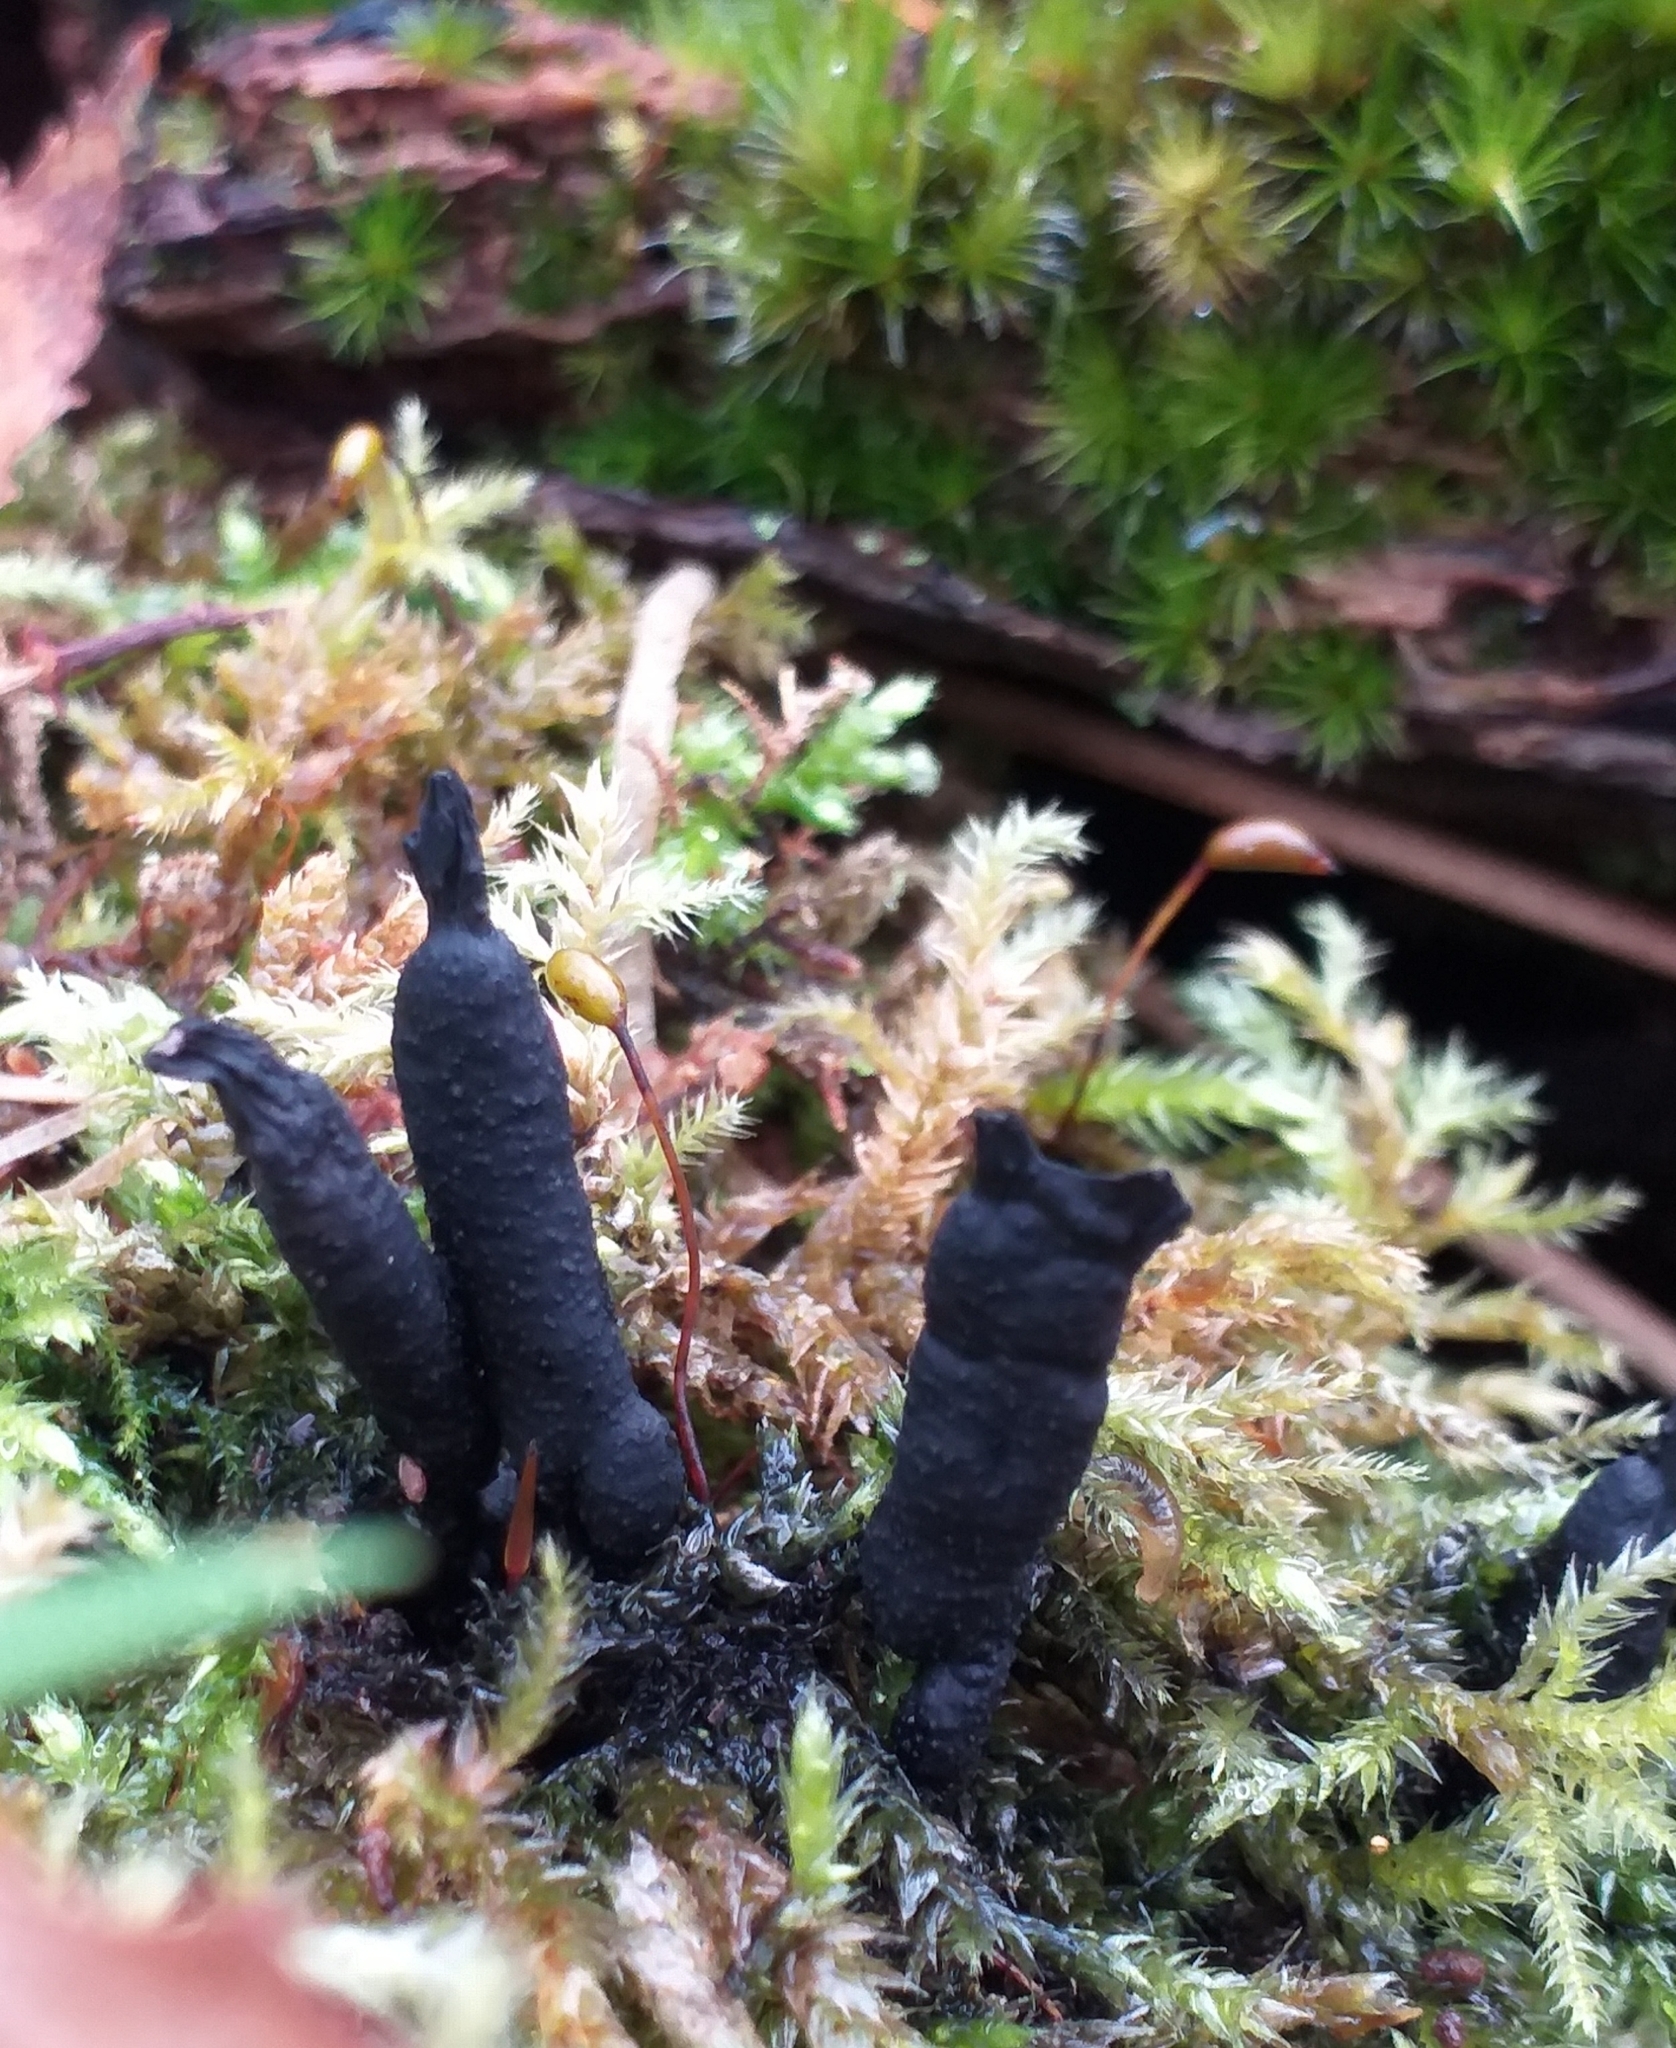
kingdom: Fungi
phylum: Ascomycota
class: Sordariomycetes
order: Xylariales
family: Xylariaceae
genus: Xylaria
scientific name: Xylaria longipes
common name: Dead moll's fingers
